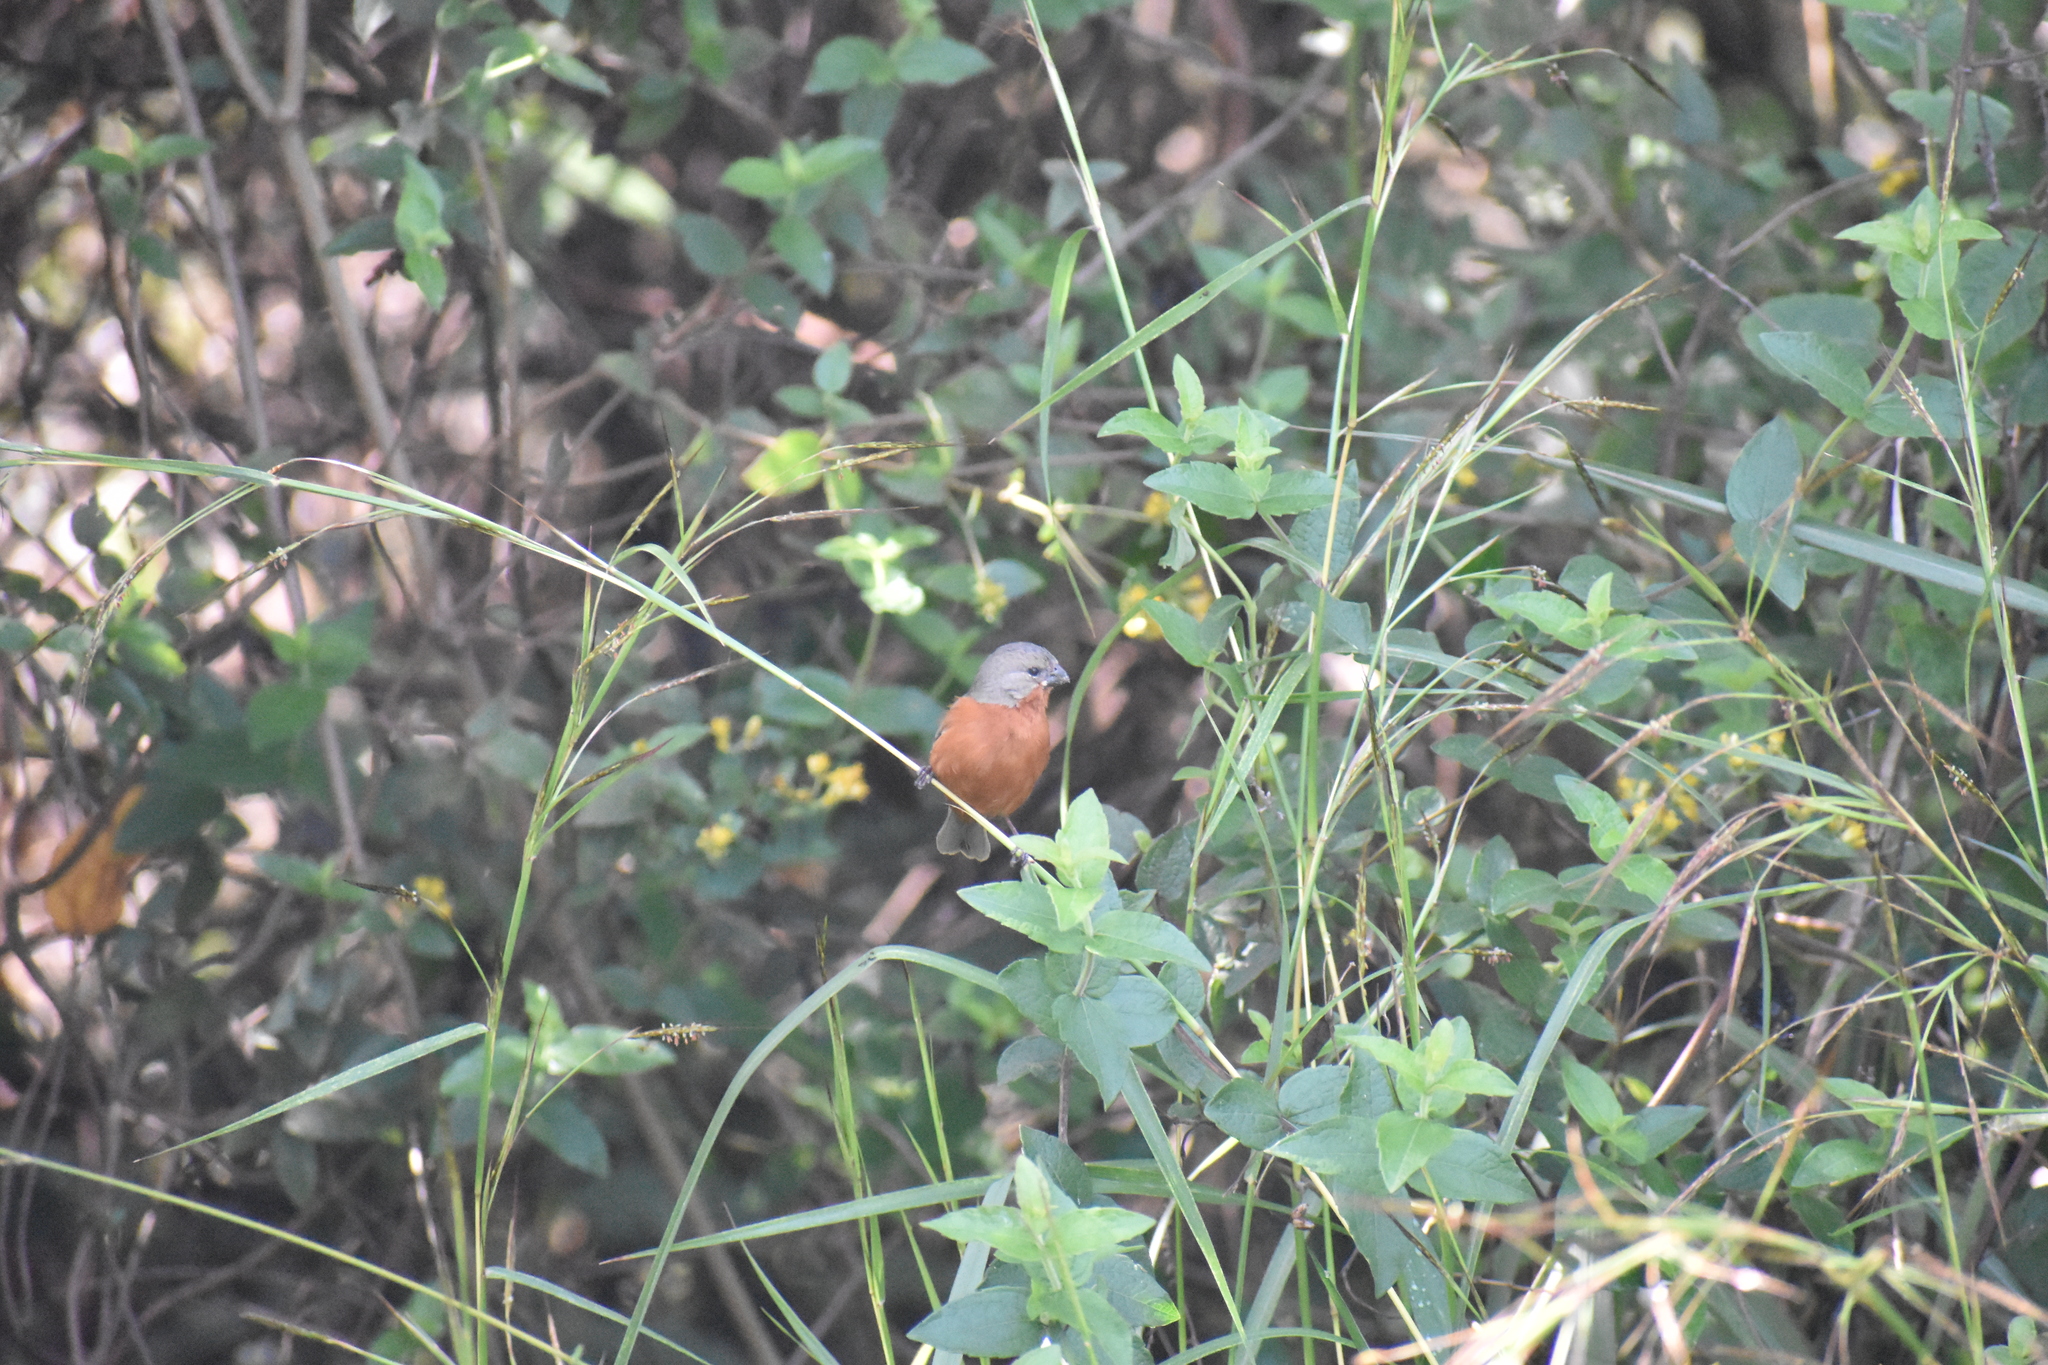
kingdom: Animalia
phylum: Chordata
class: Aves
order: Passeriformes
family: Thraupidae
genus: Sporophila
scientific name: Sporophila minuta
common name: Ruddy-breasted seedeater
